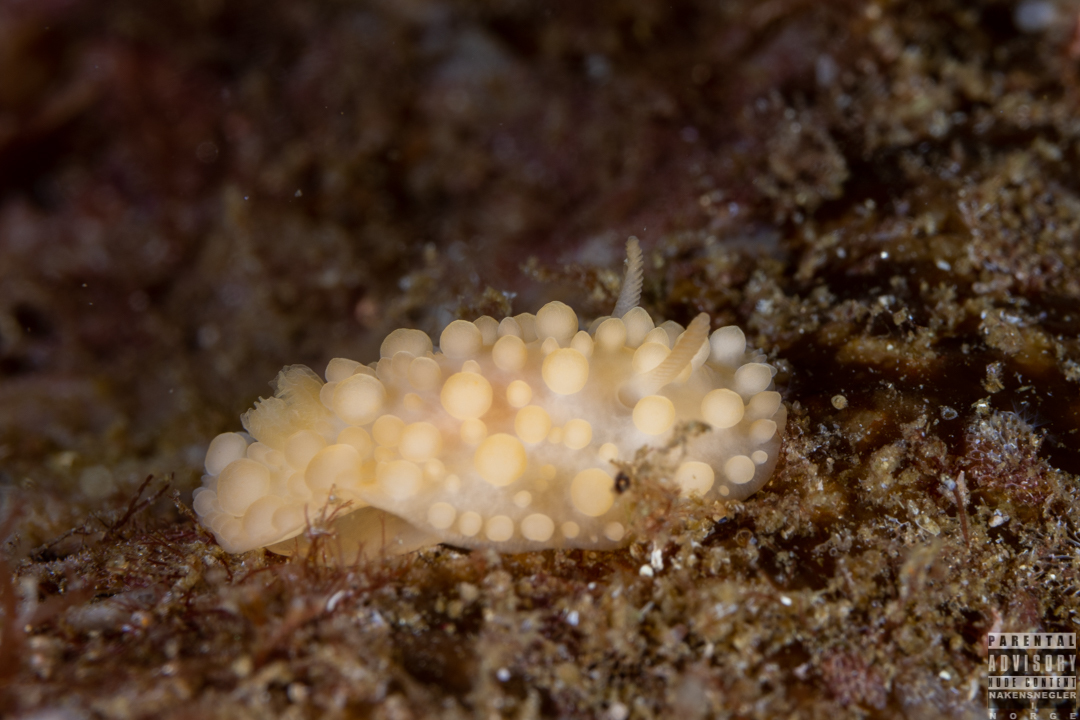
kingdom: Animalia
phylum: Mollusca
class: Gastropoda
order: Nudibranchia
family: Onchidorididae
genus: Adalaria
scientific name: Adalaria loveni
